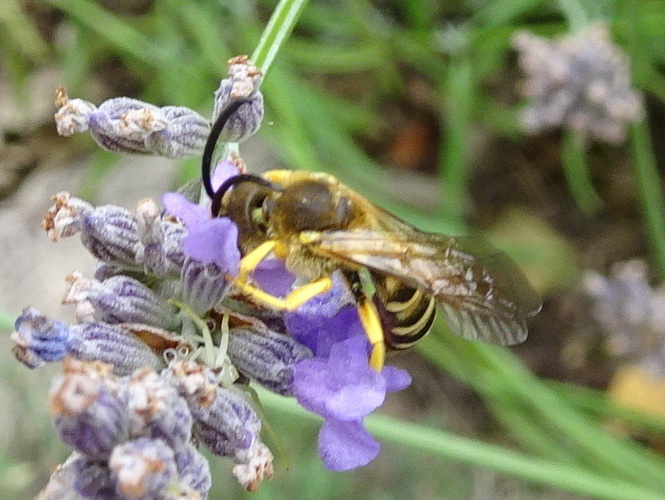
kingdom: Animalia
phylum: Arthropoda
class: Insecta
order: Hymenoptera
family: Halictidae
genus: Halictus
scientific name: Halictus scabiosae
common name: Great banded furrow bee
